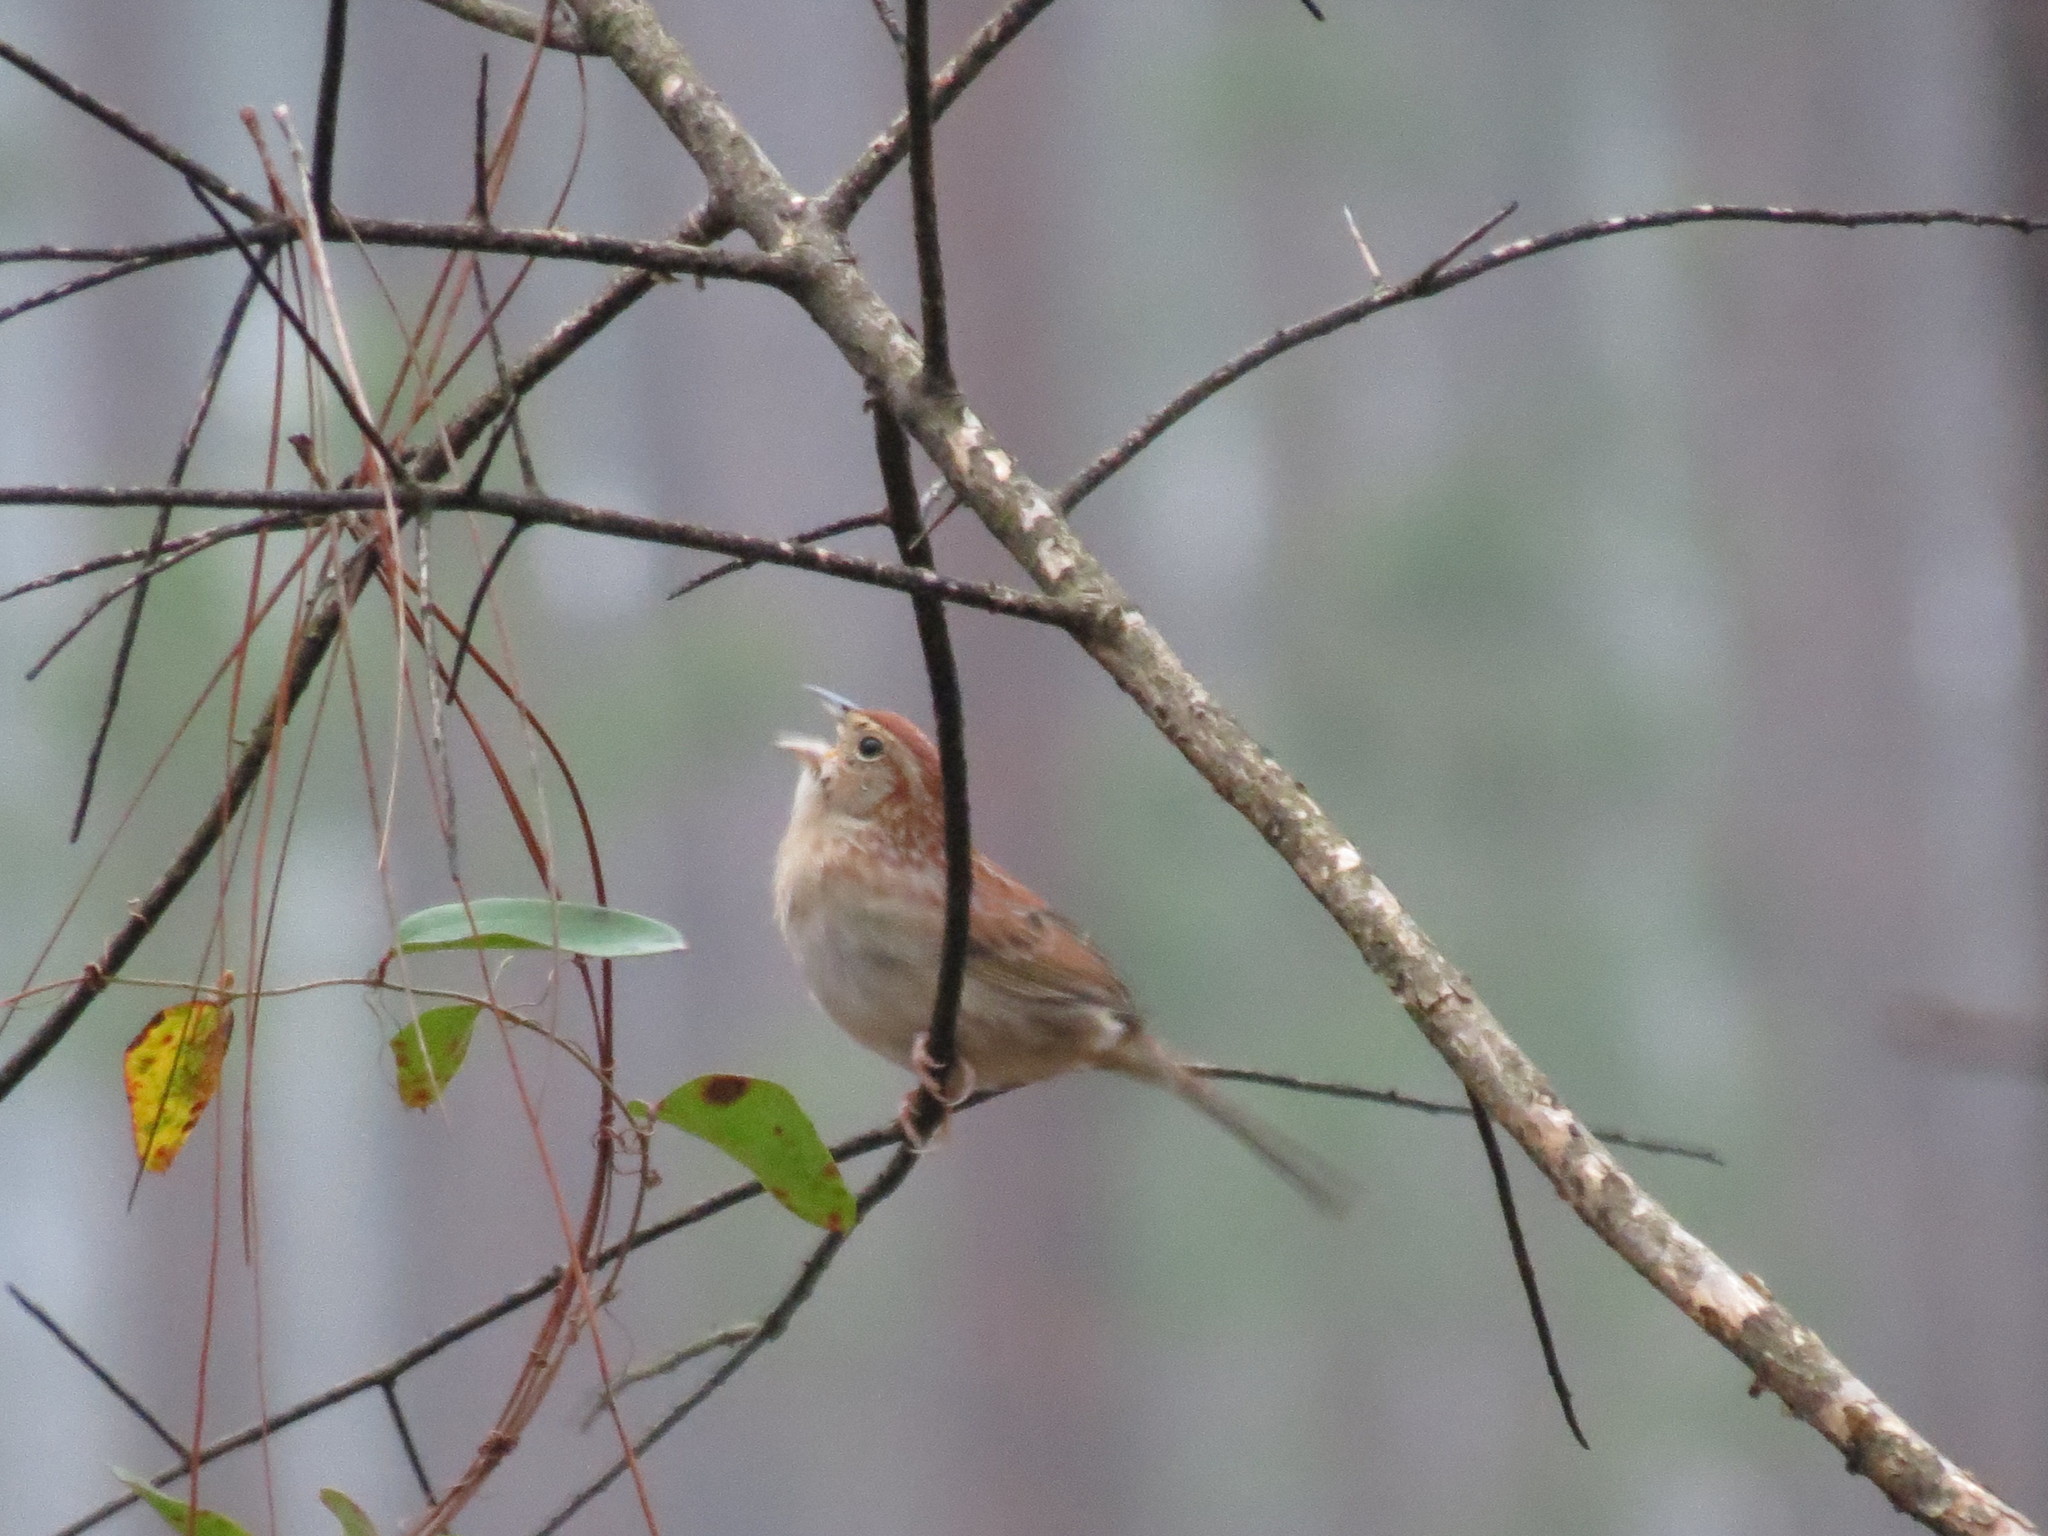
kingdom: Animalia
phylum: Chordata
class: Aves
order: Passeriformes
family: Passerellidae
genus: Peucaea
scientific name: Peucaea aestivalis
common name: Bachman's sparrow
